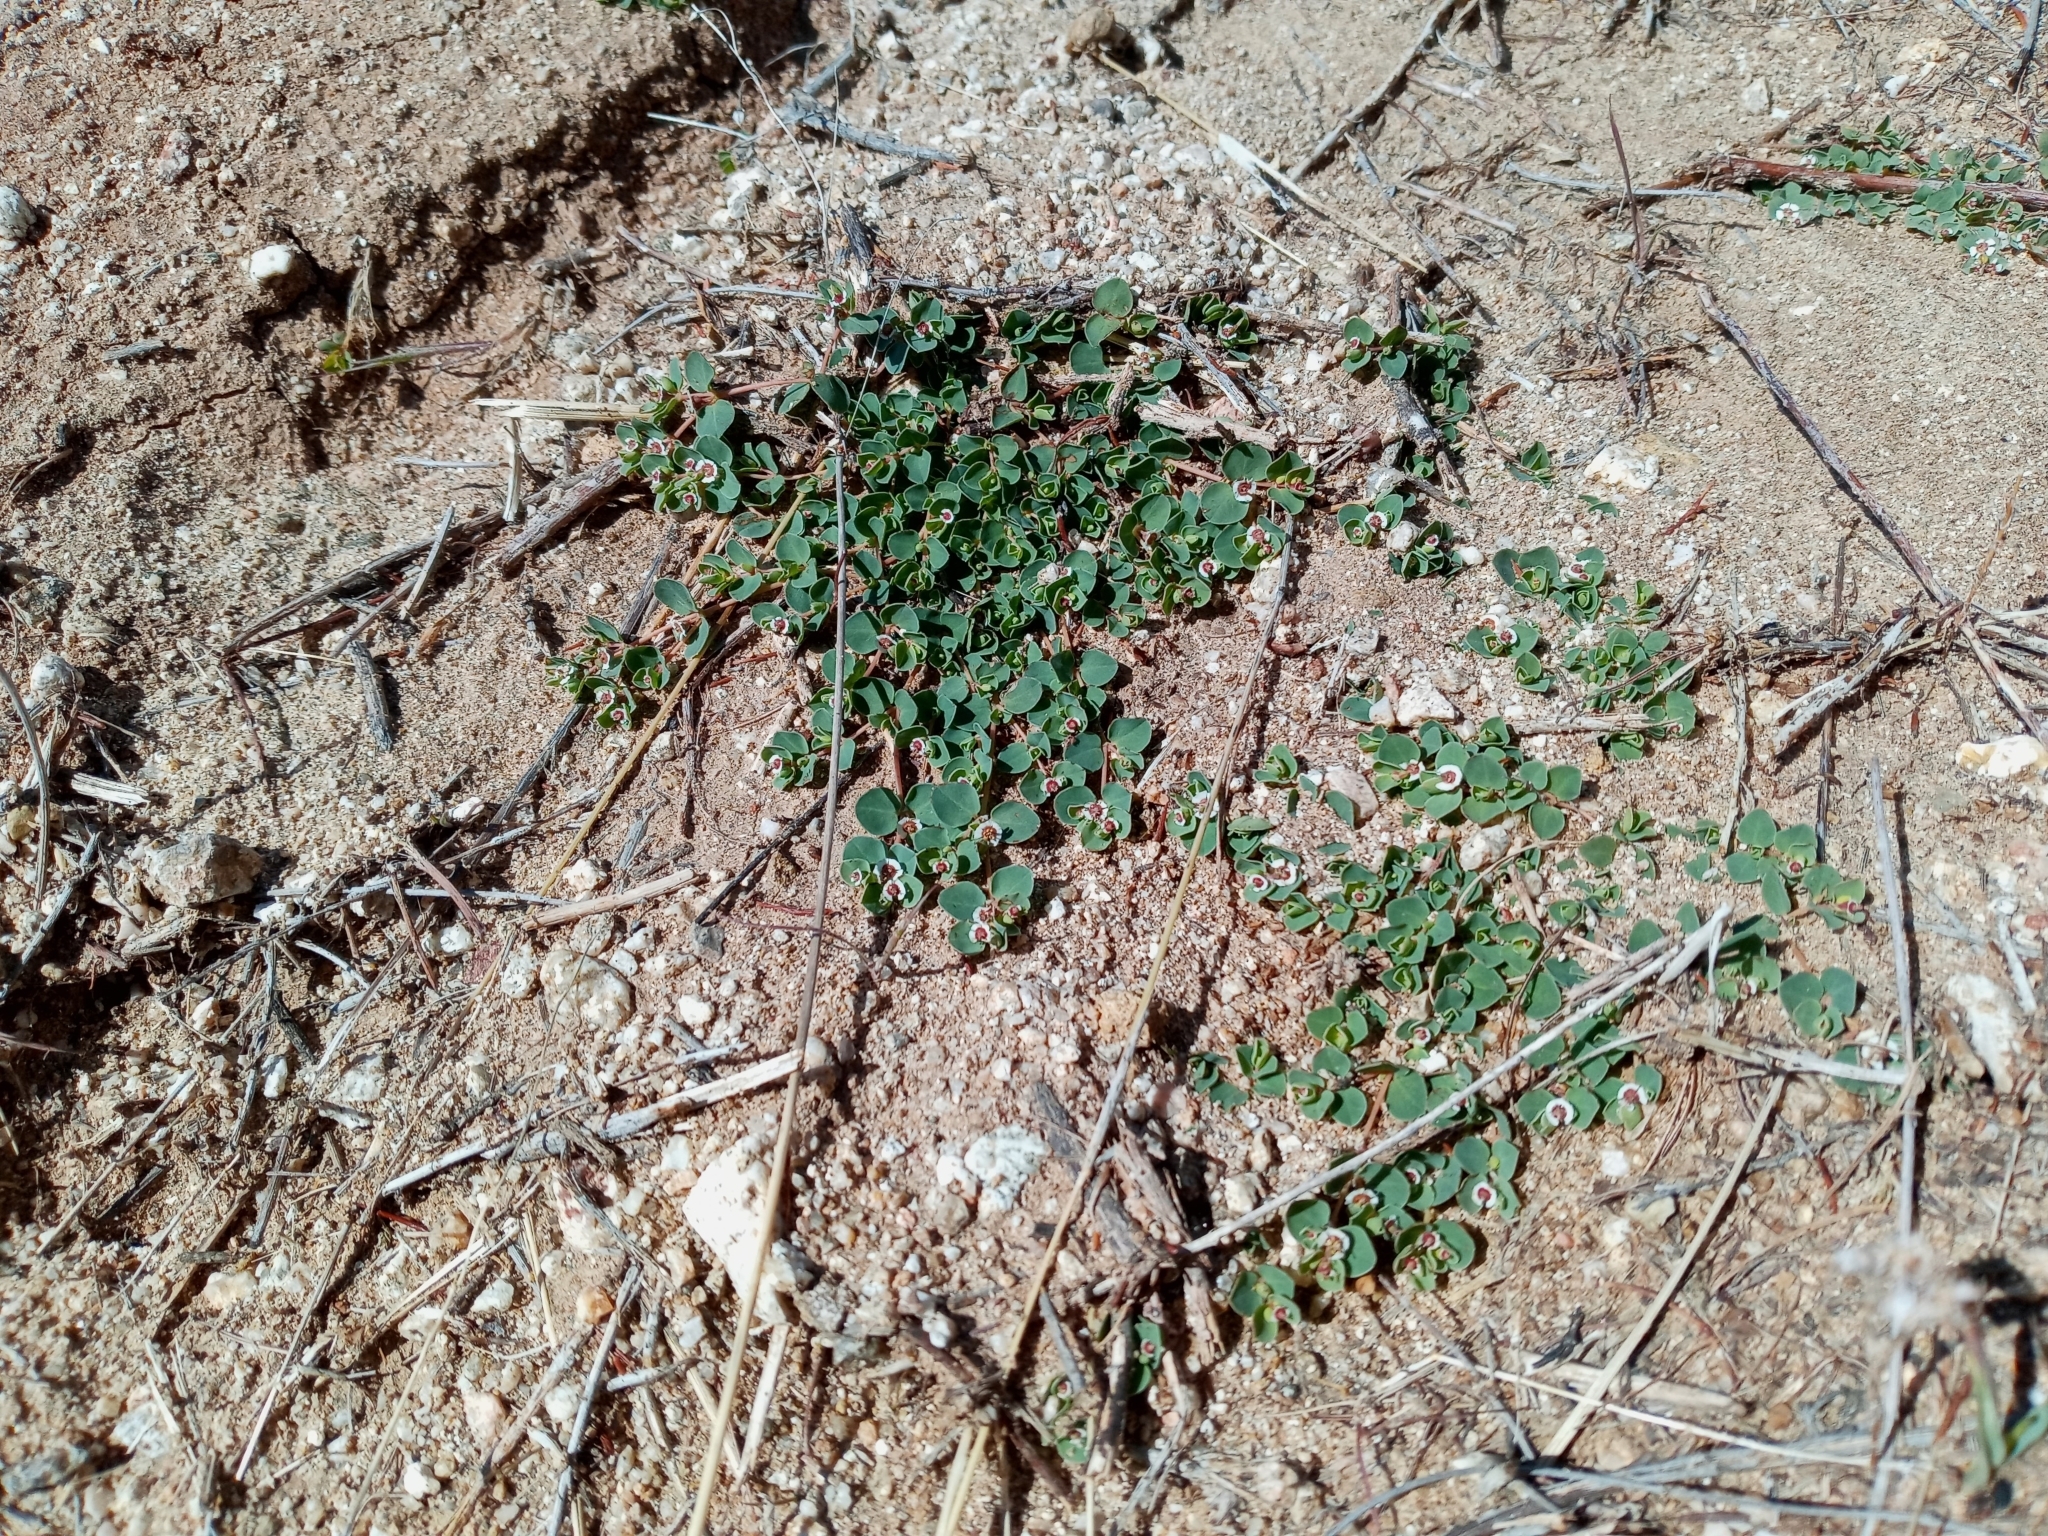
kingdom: Plantae
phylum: Tracheophyta
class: Magnoliopsida
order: Malpighiales
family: Euphorbiaceae
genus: Euphorbia
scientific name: Euphorbia albomarginata
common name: Whitemargin sandmat
